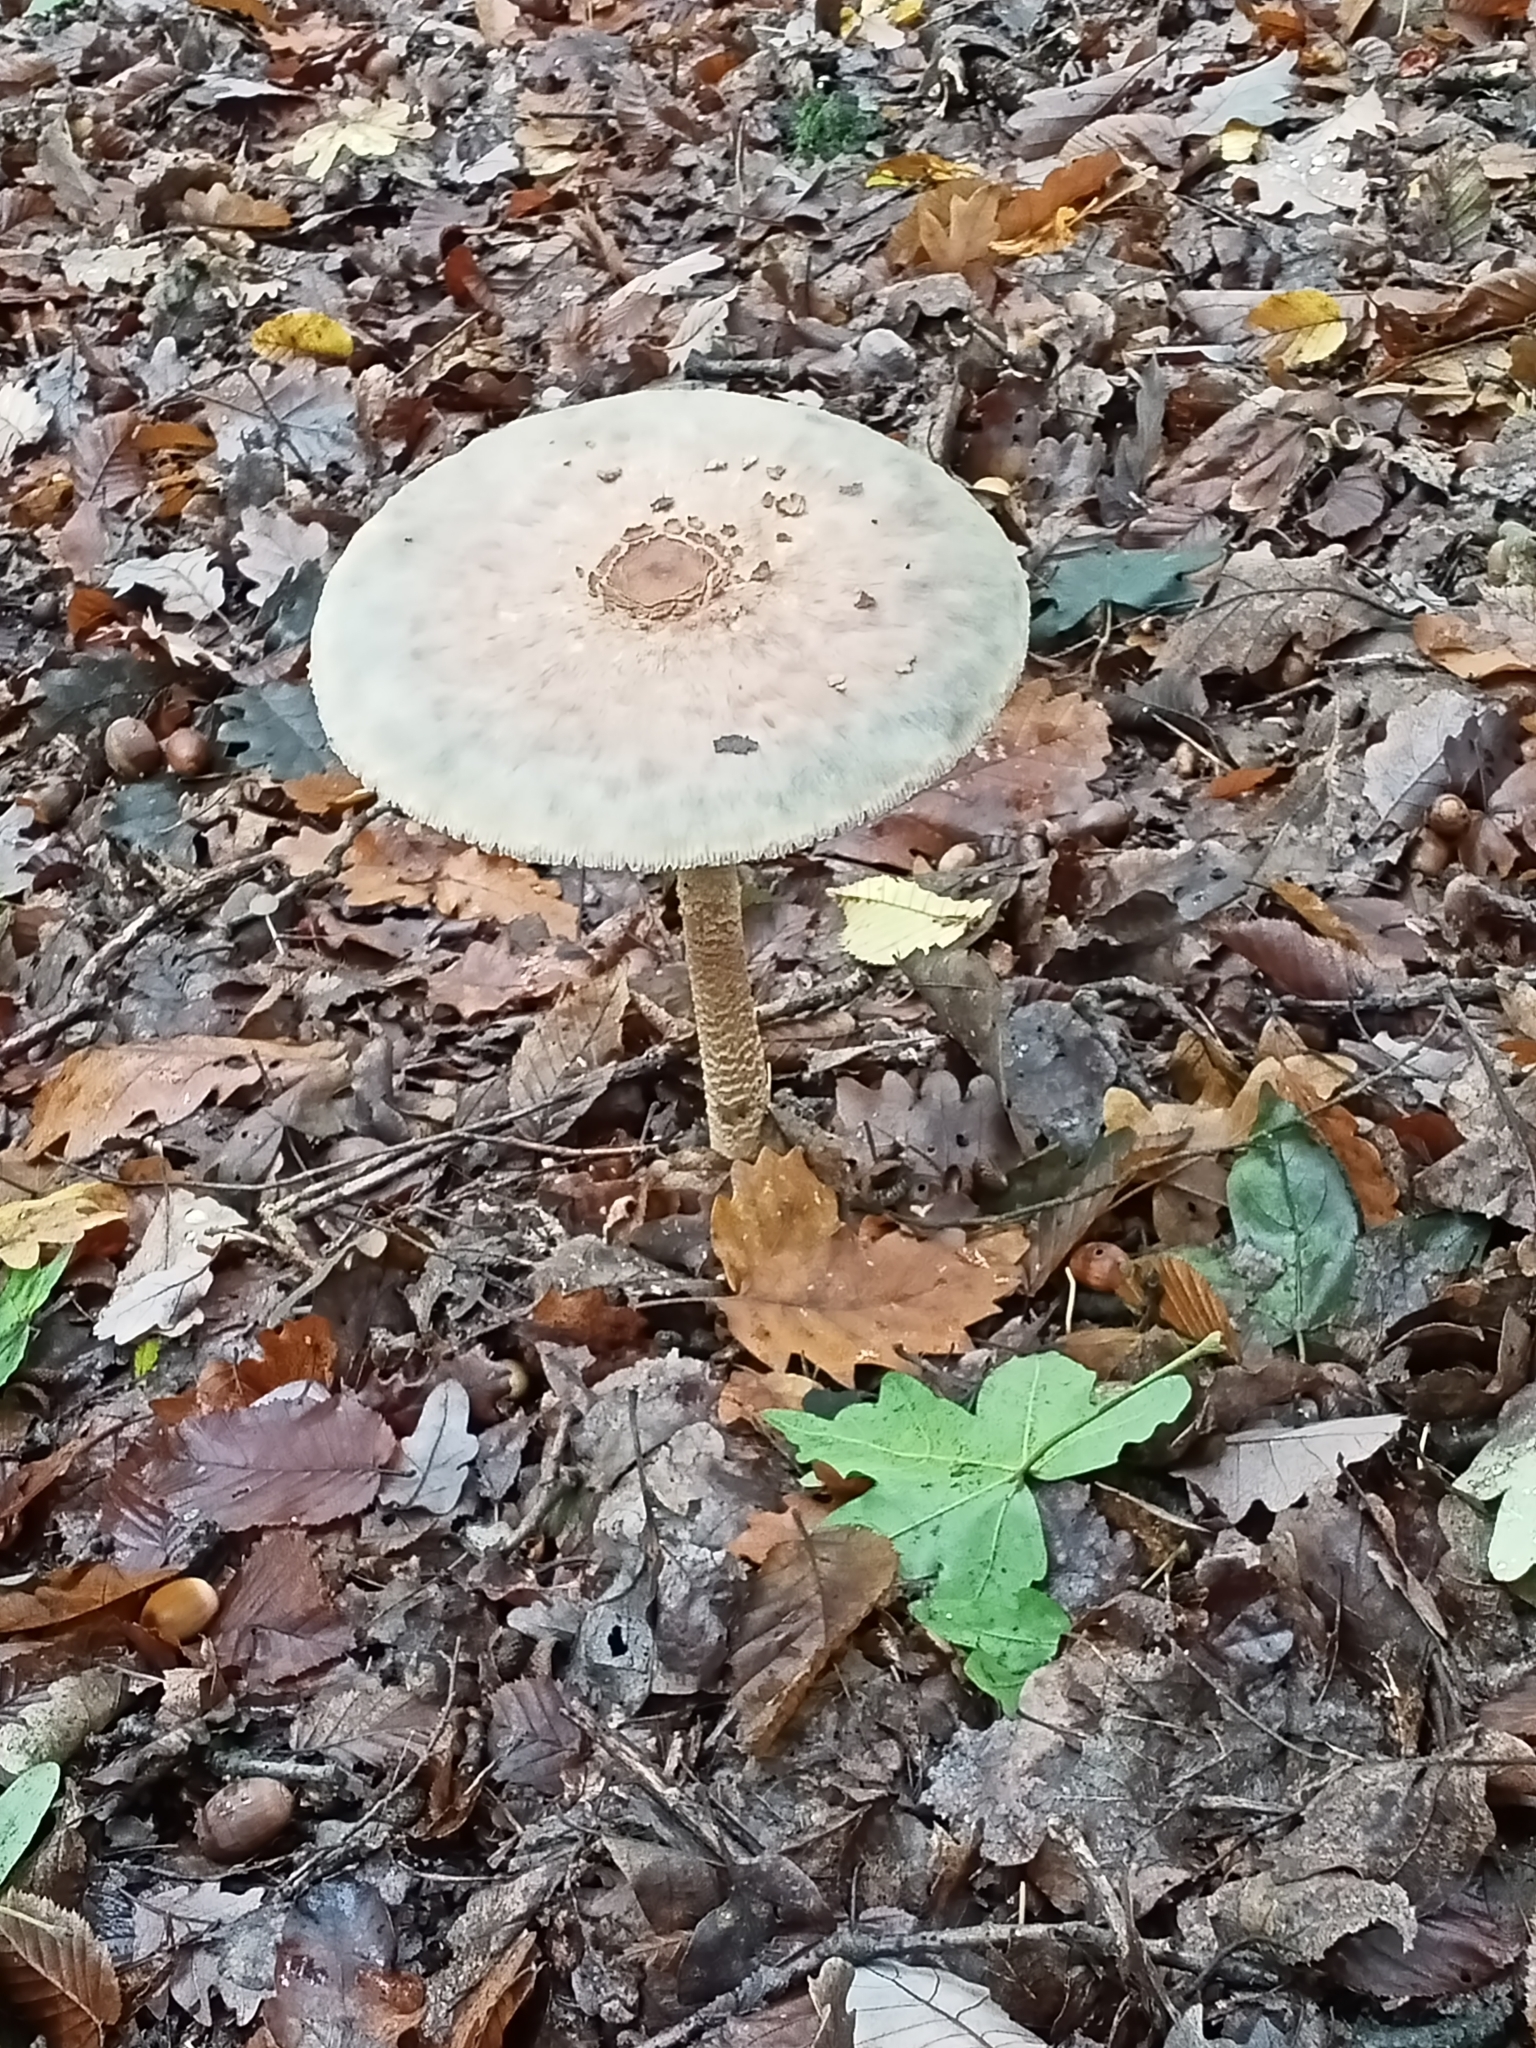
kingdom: Fungi
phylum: Basidiomycota
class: Agaricomycetes
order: Agaricales
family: Agaricaceae
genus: Macrolepiota
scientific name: Macrolepiota procera
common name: Parasol
